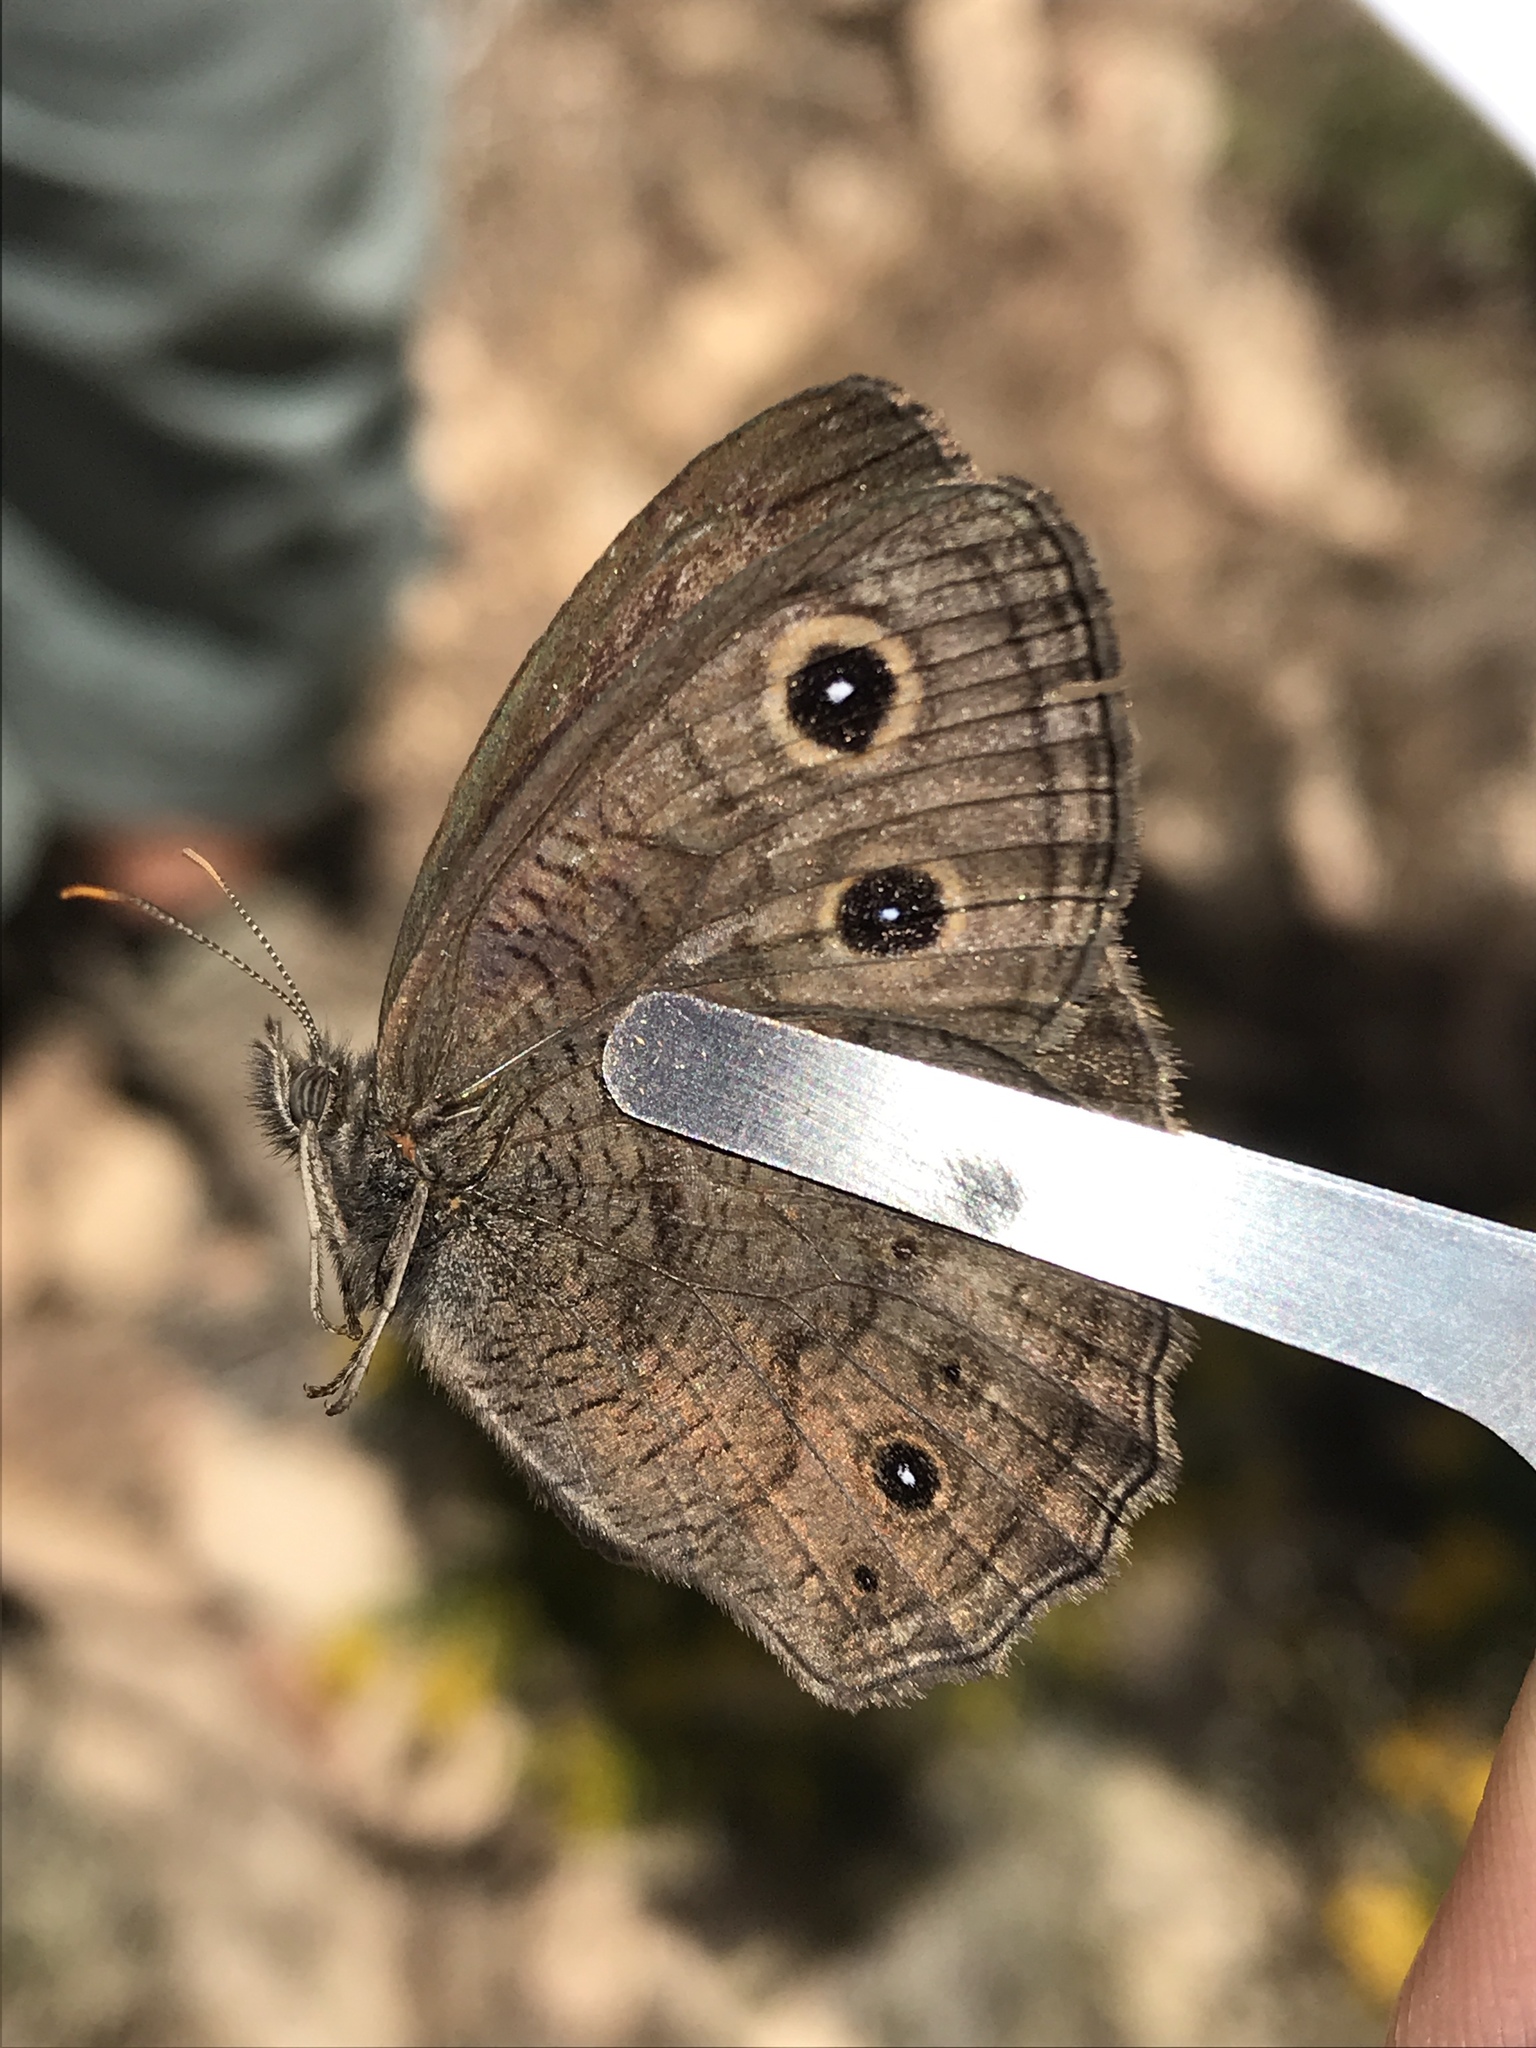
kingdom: Animalia
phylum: Arthropoda
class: Insecta
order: Lepidoptera
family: Nymphalidae
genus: Cercyonis
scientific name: Cercyonis sthenele
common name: Great basin wood-nymph
